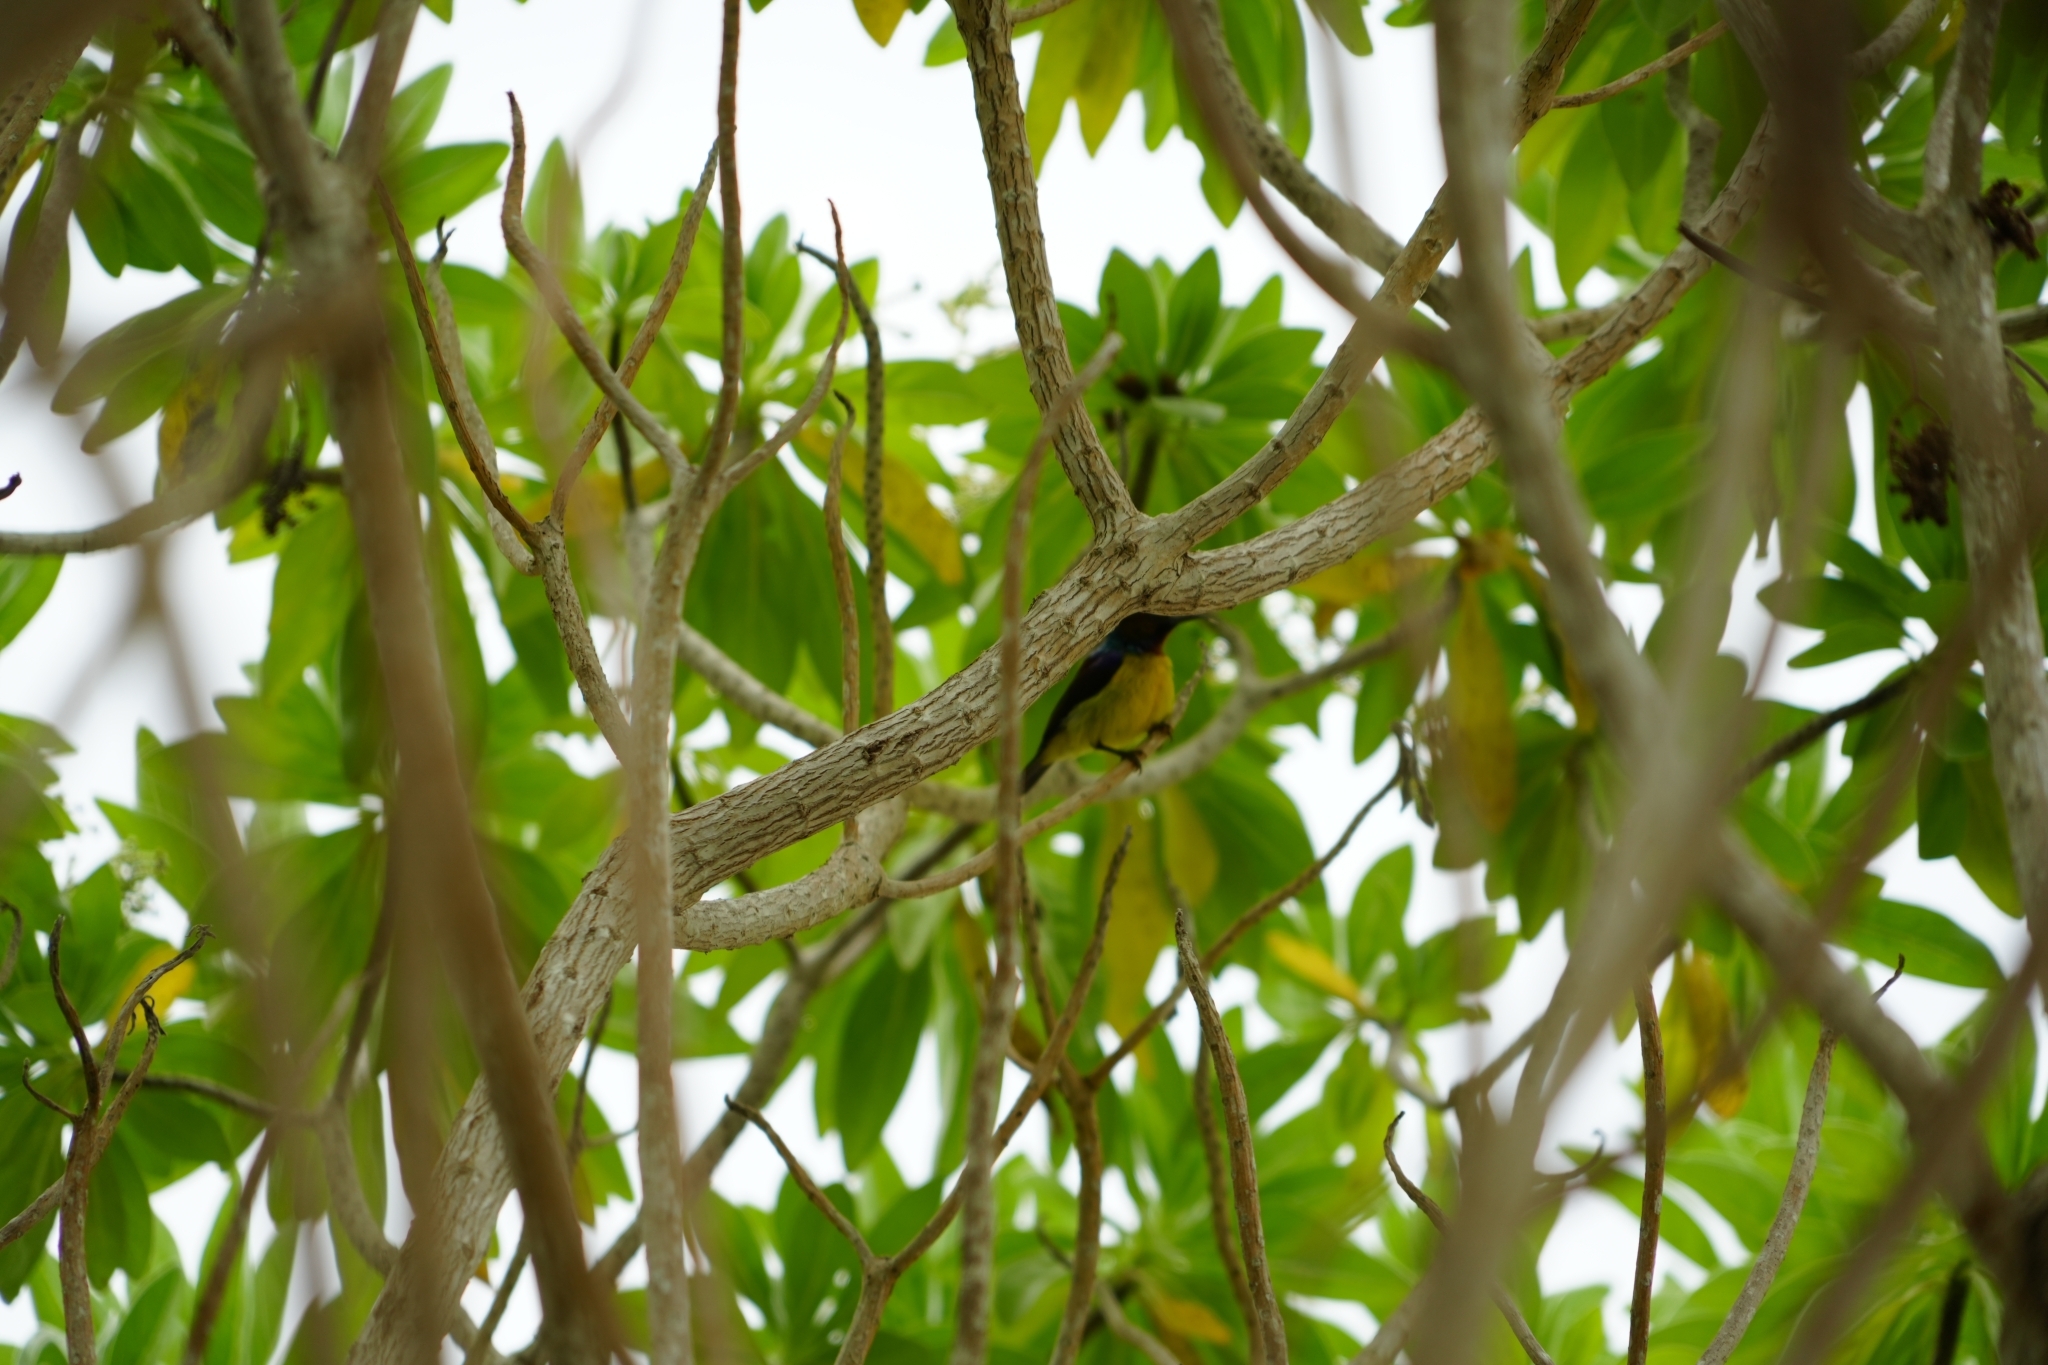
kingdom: Animalia
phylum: Chordata
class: Aves
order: Passeriformes
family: Nectariniidae
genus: Anthreptes
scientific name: Anthreptes malacensis
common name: Brown-throated sunbird
